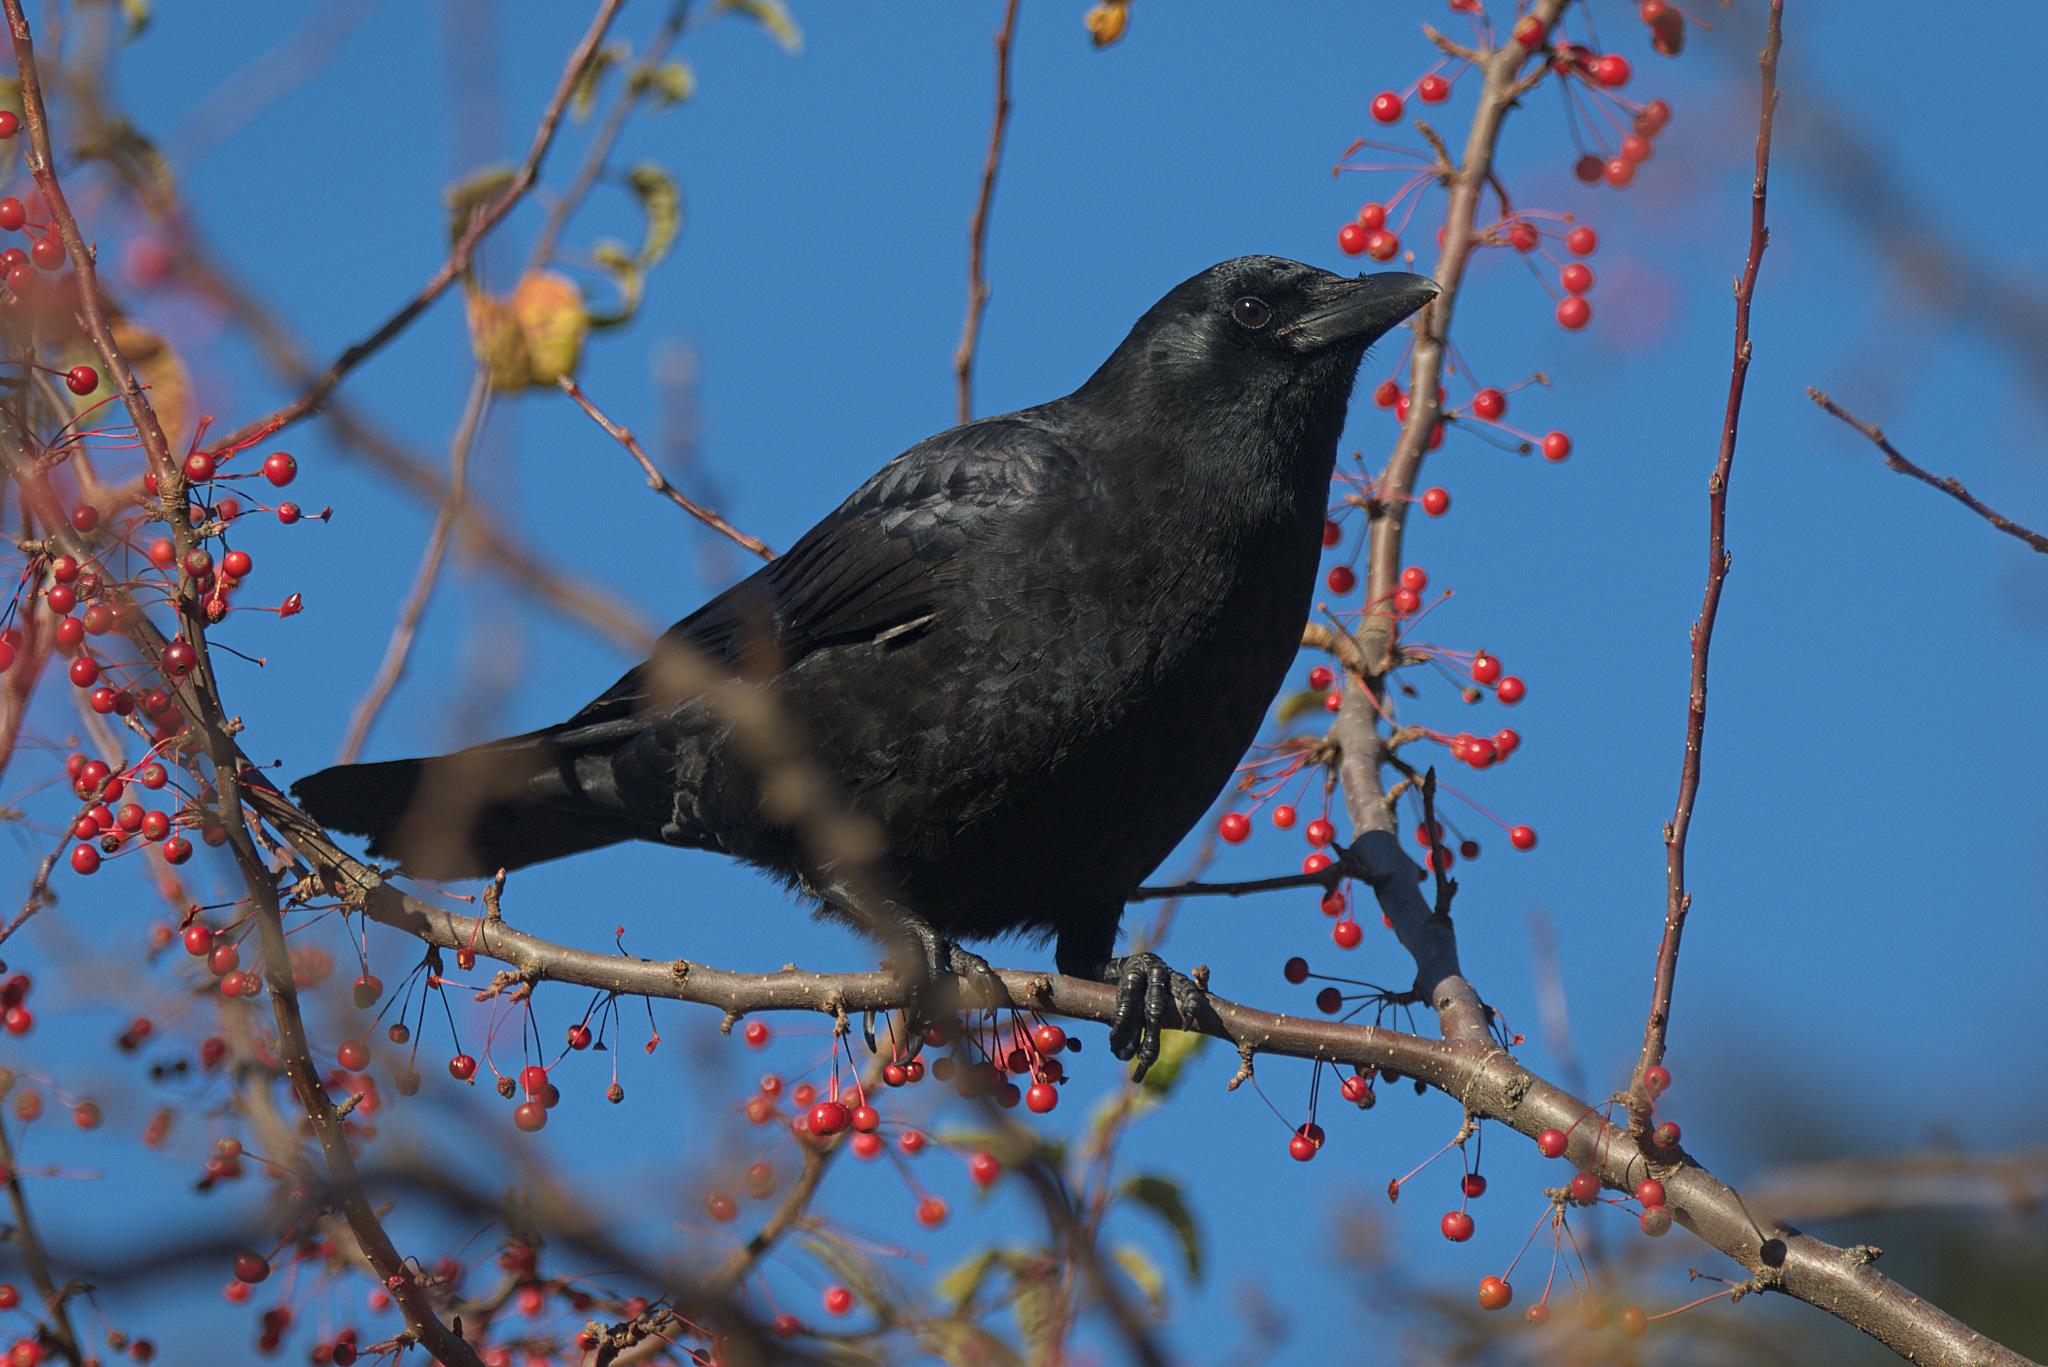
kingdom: Animalia
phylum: Chordata
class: Aves
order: Passeriformes
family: Corvidae
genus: Corvus
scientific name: Corvus brachyrhynchos
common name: American crow
